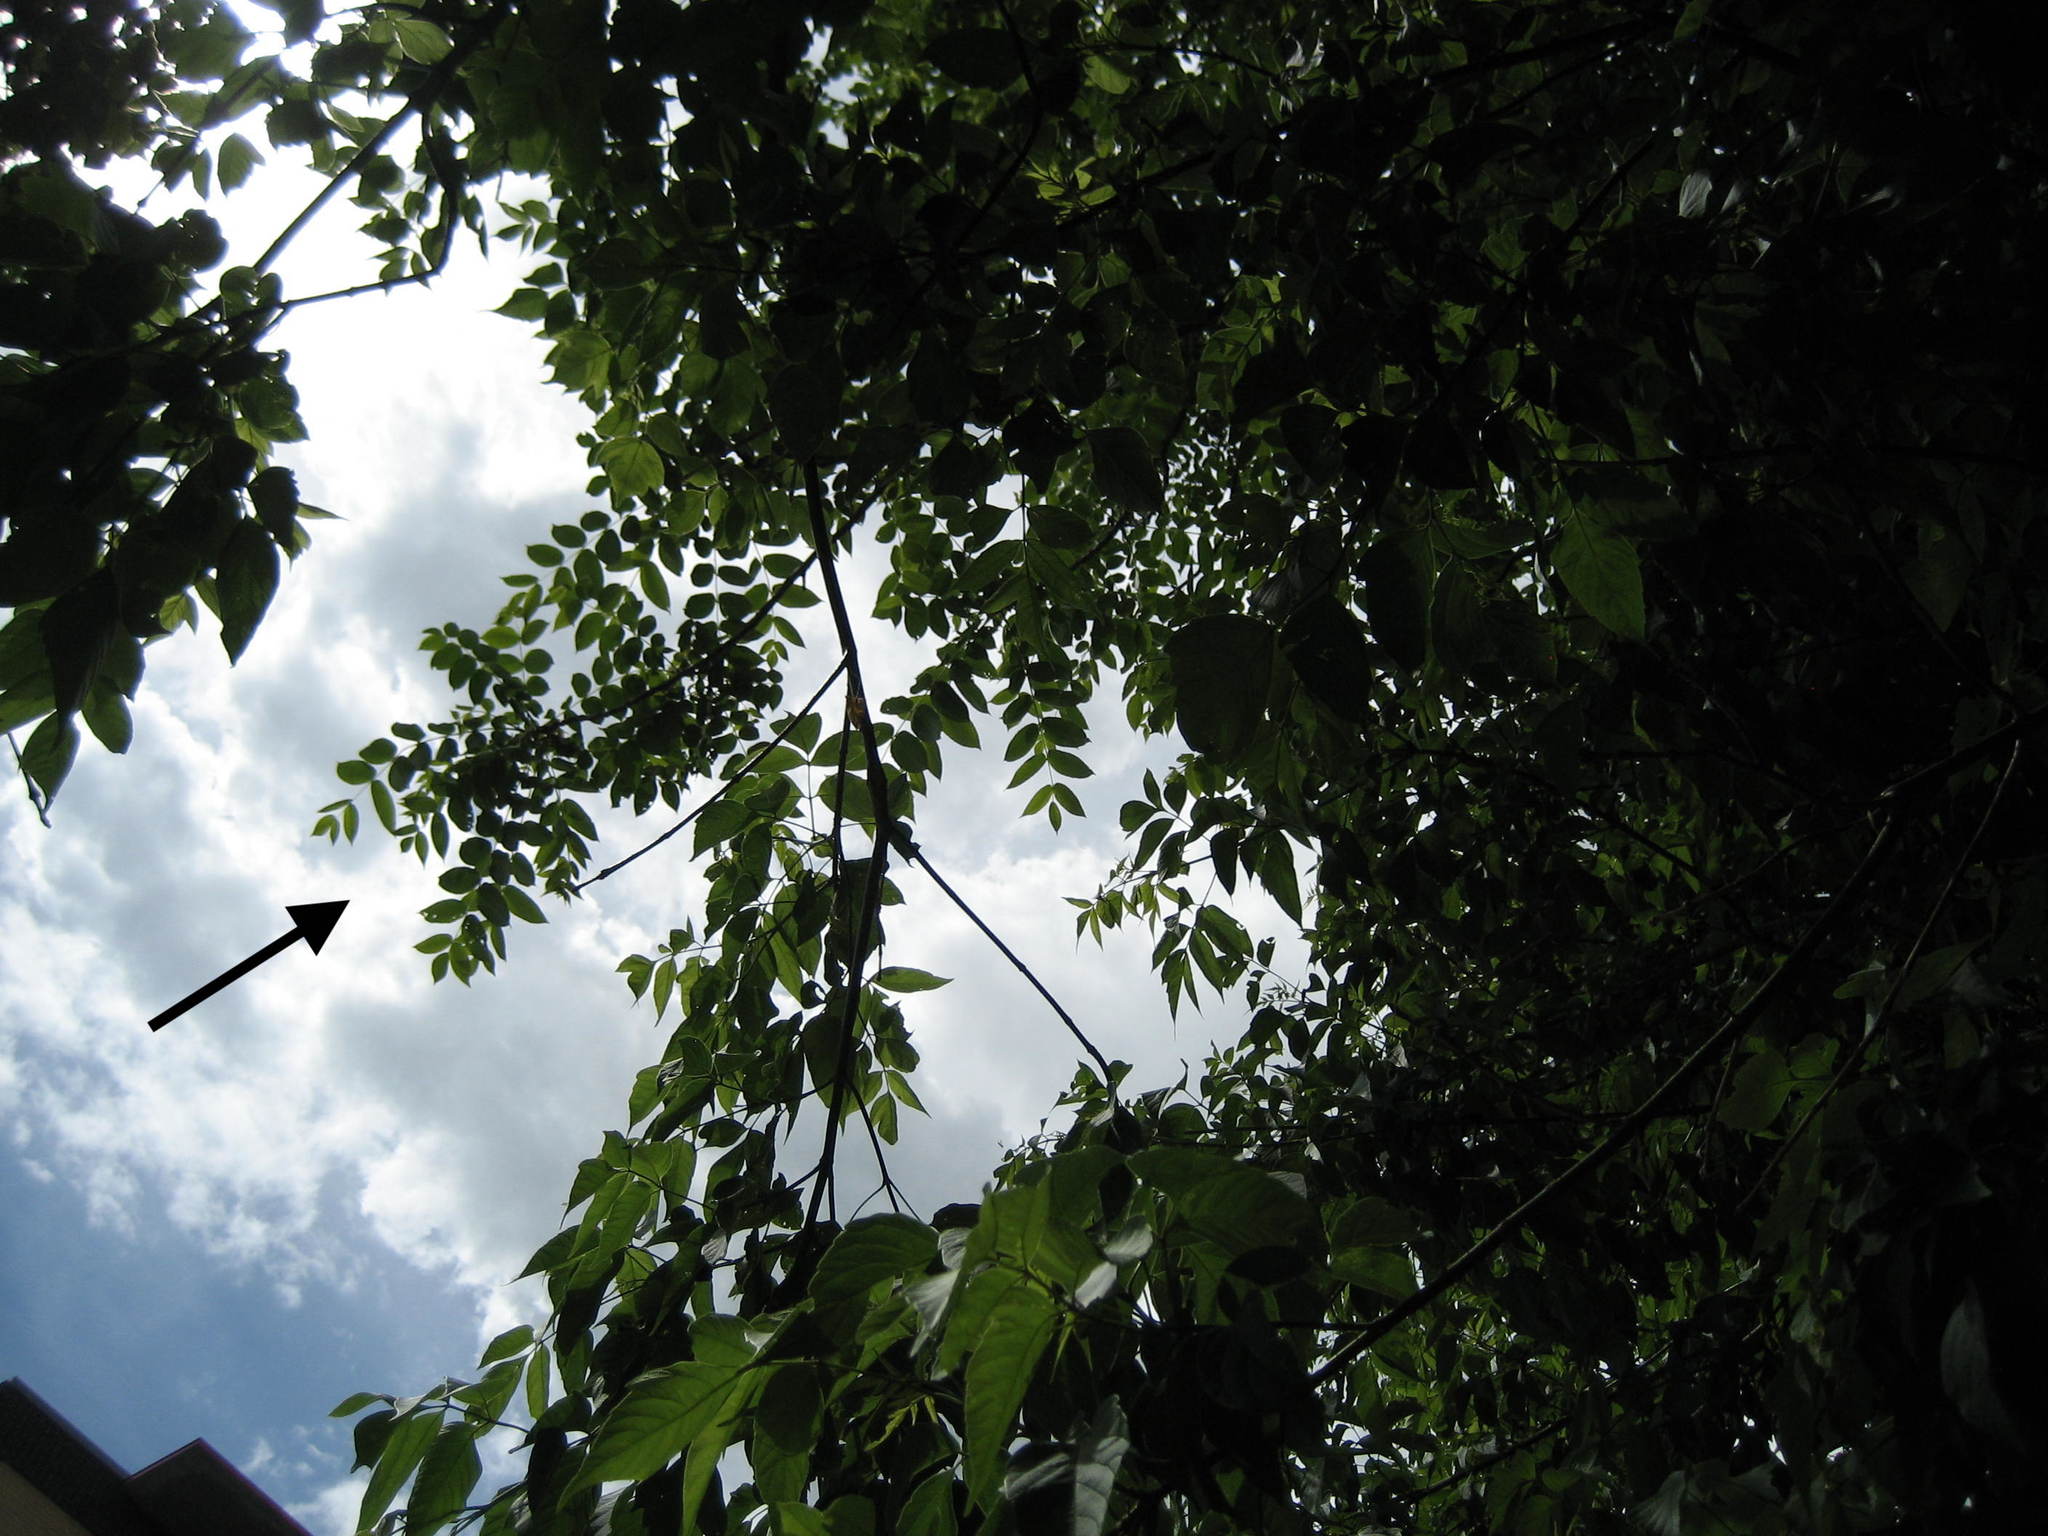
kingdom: Plantae
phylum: Tracheophyta
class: Magnoliopsida
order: Fagales
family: Juglandaceae
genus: Juglans
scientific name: Juglans cinerea
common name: Butternut
